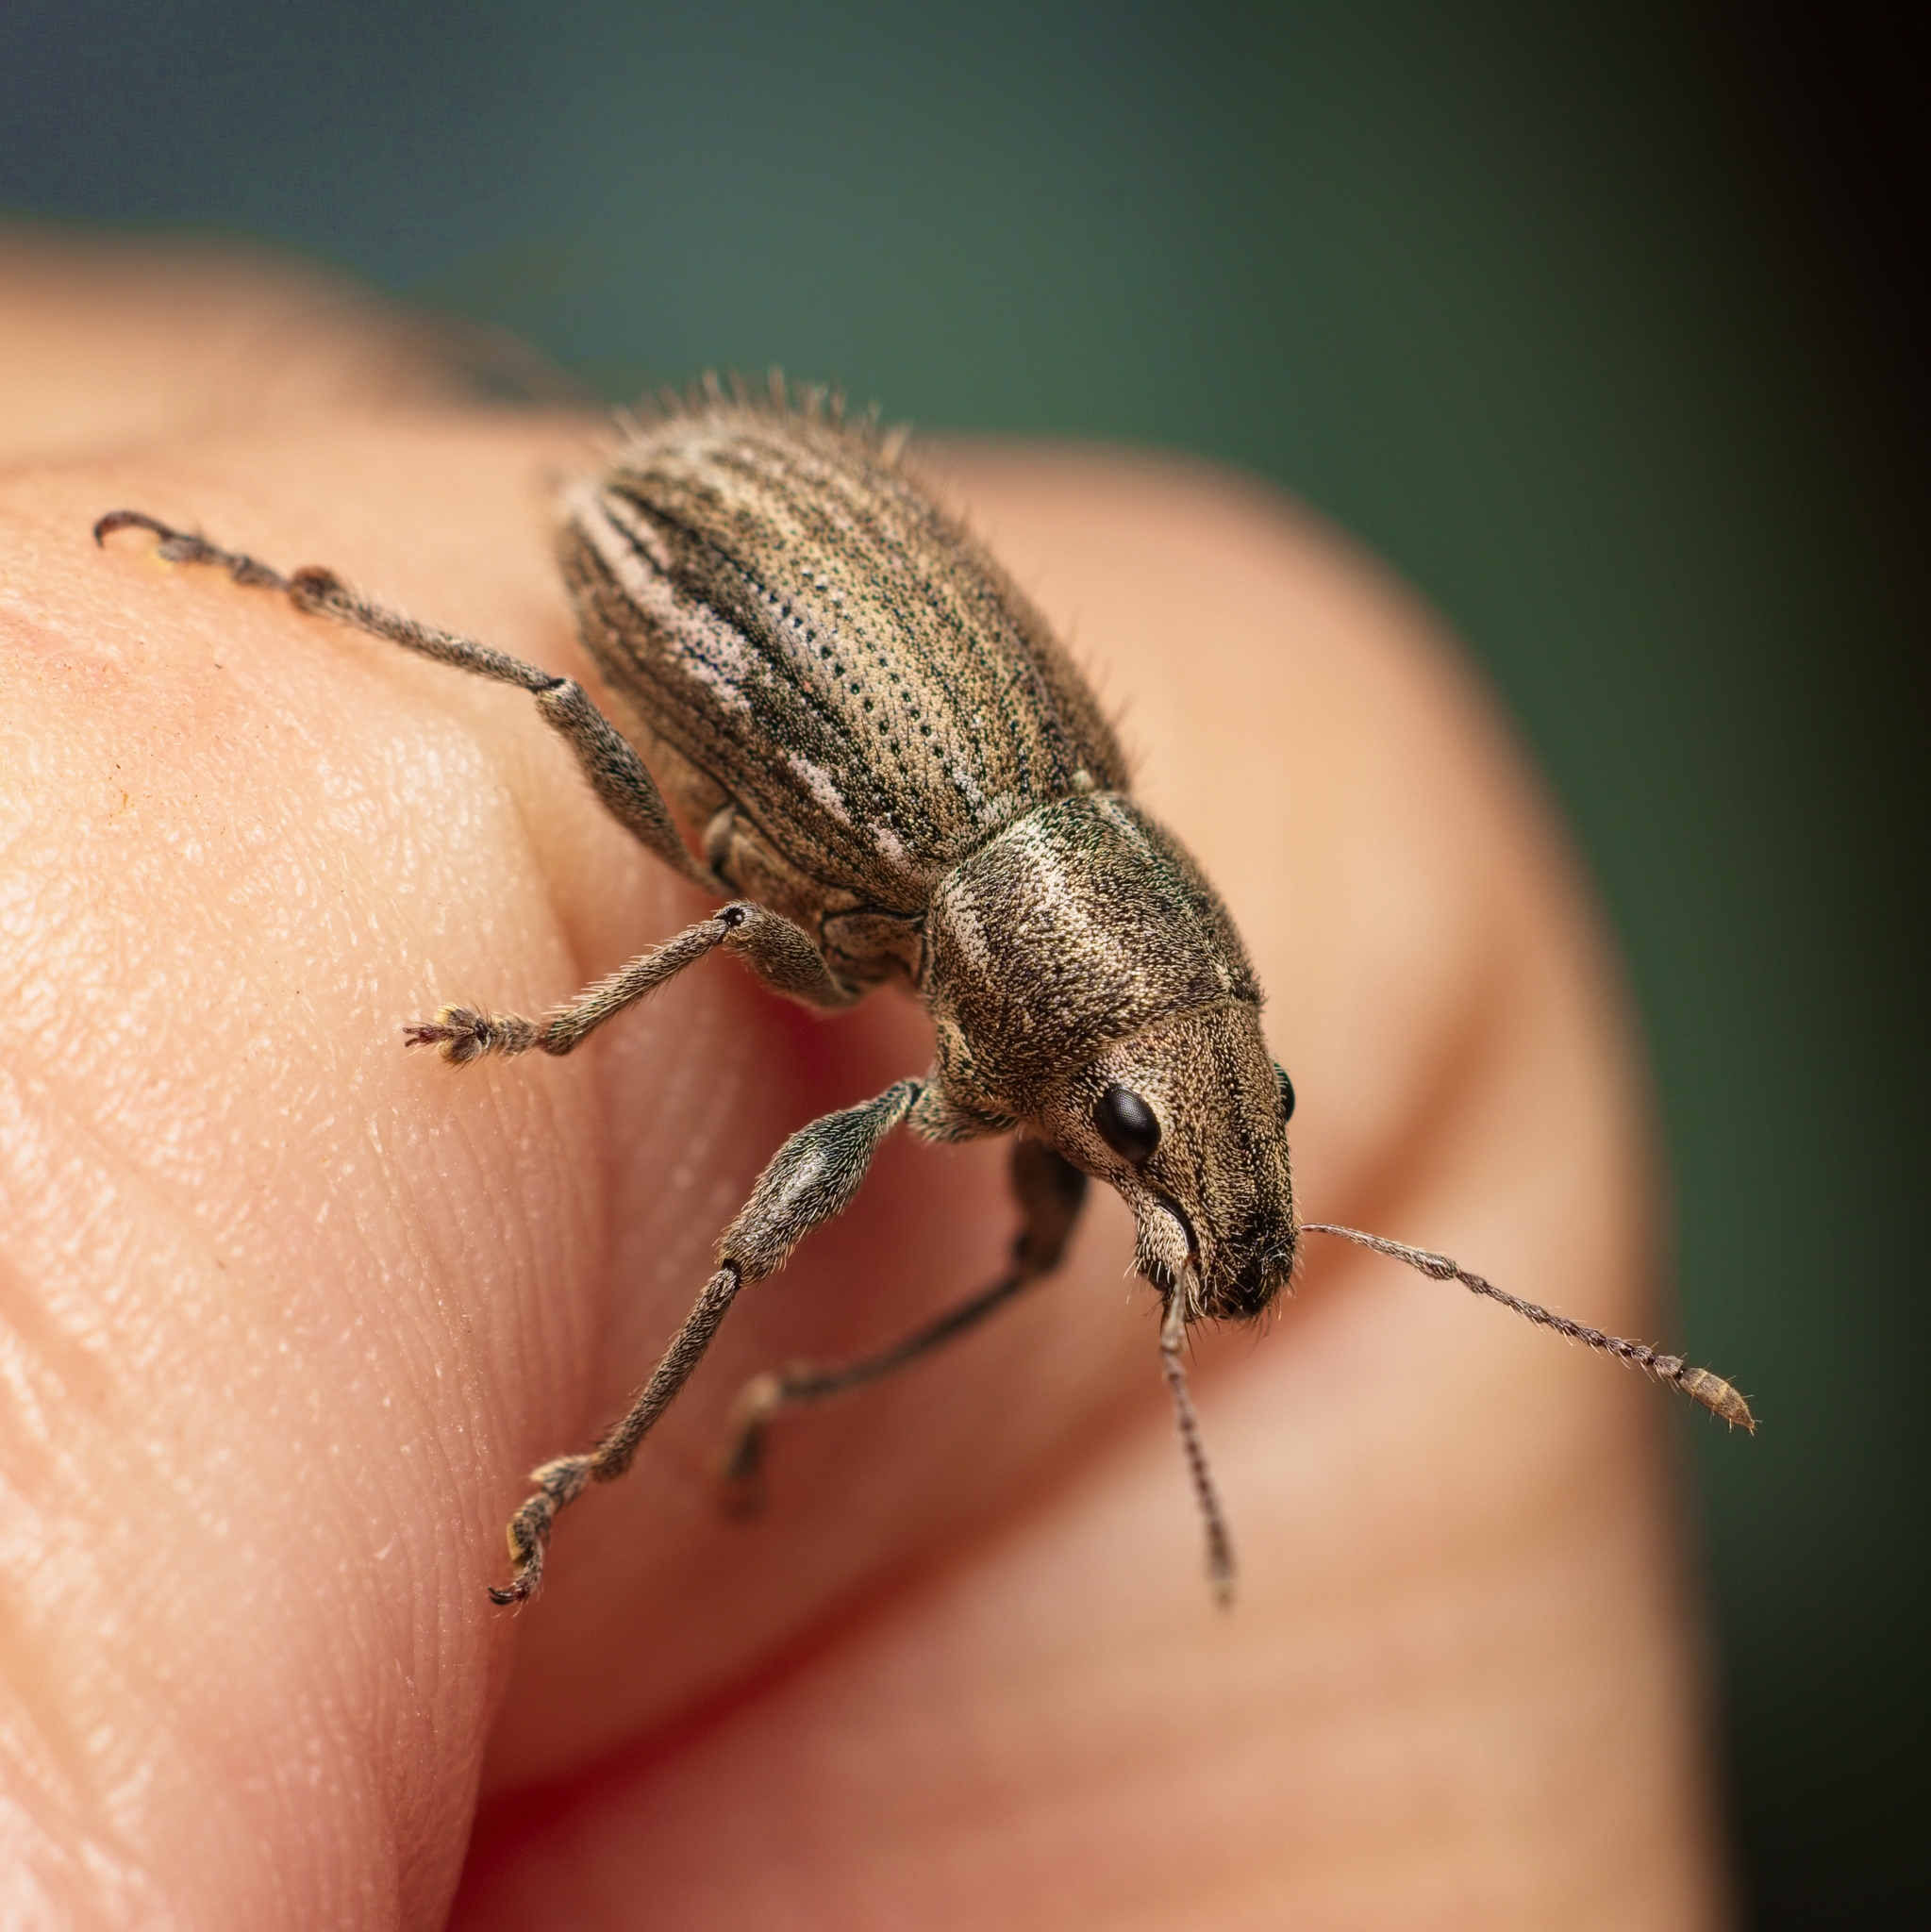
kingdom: Animalia
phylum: Arthropoda
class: Insecta
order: Coleoptera
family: Curculionidae
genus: Naupactus
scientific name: Naupactus leucoloma
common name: Whitefringed beetle
